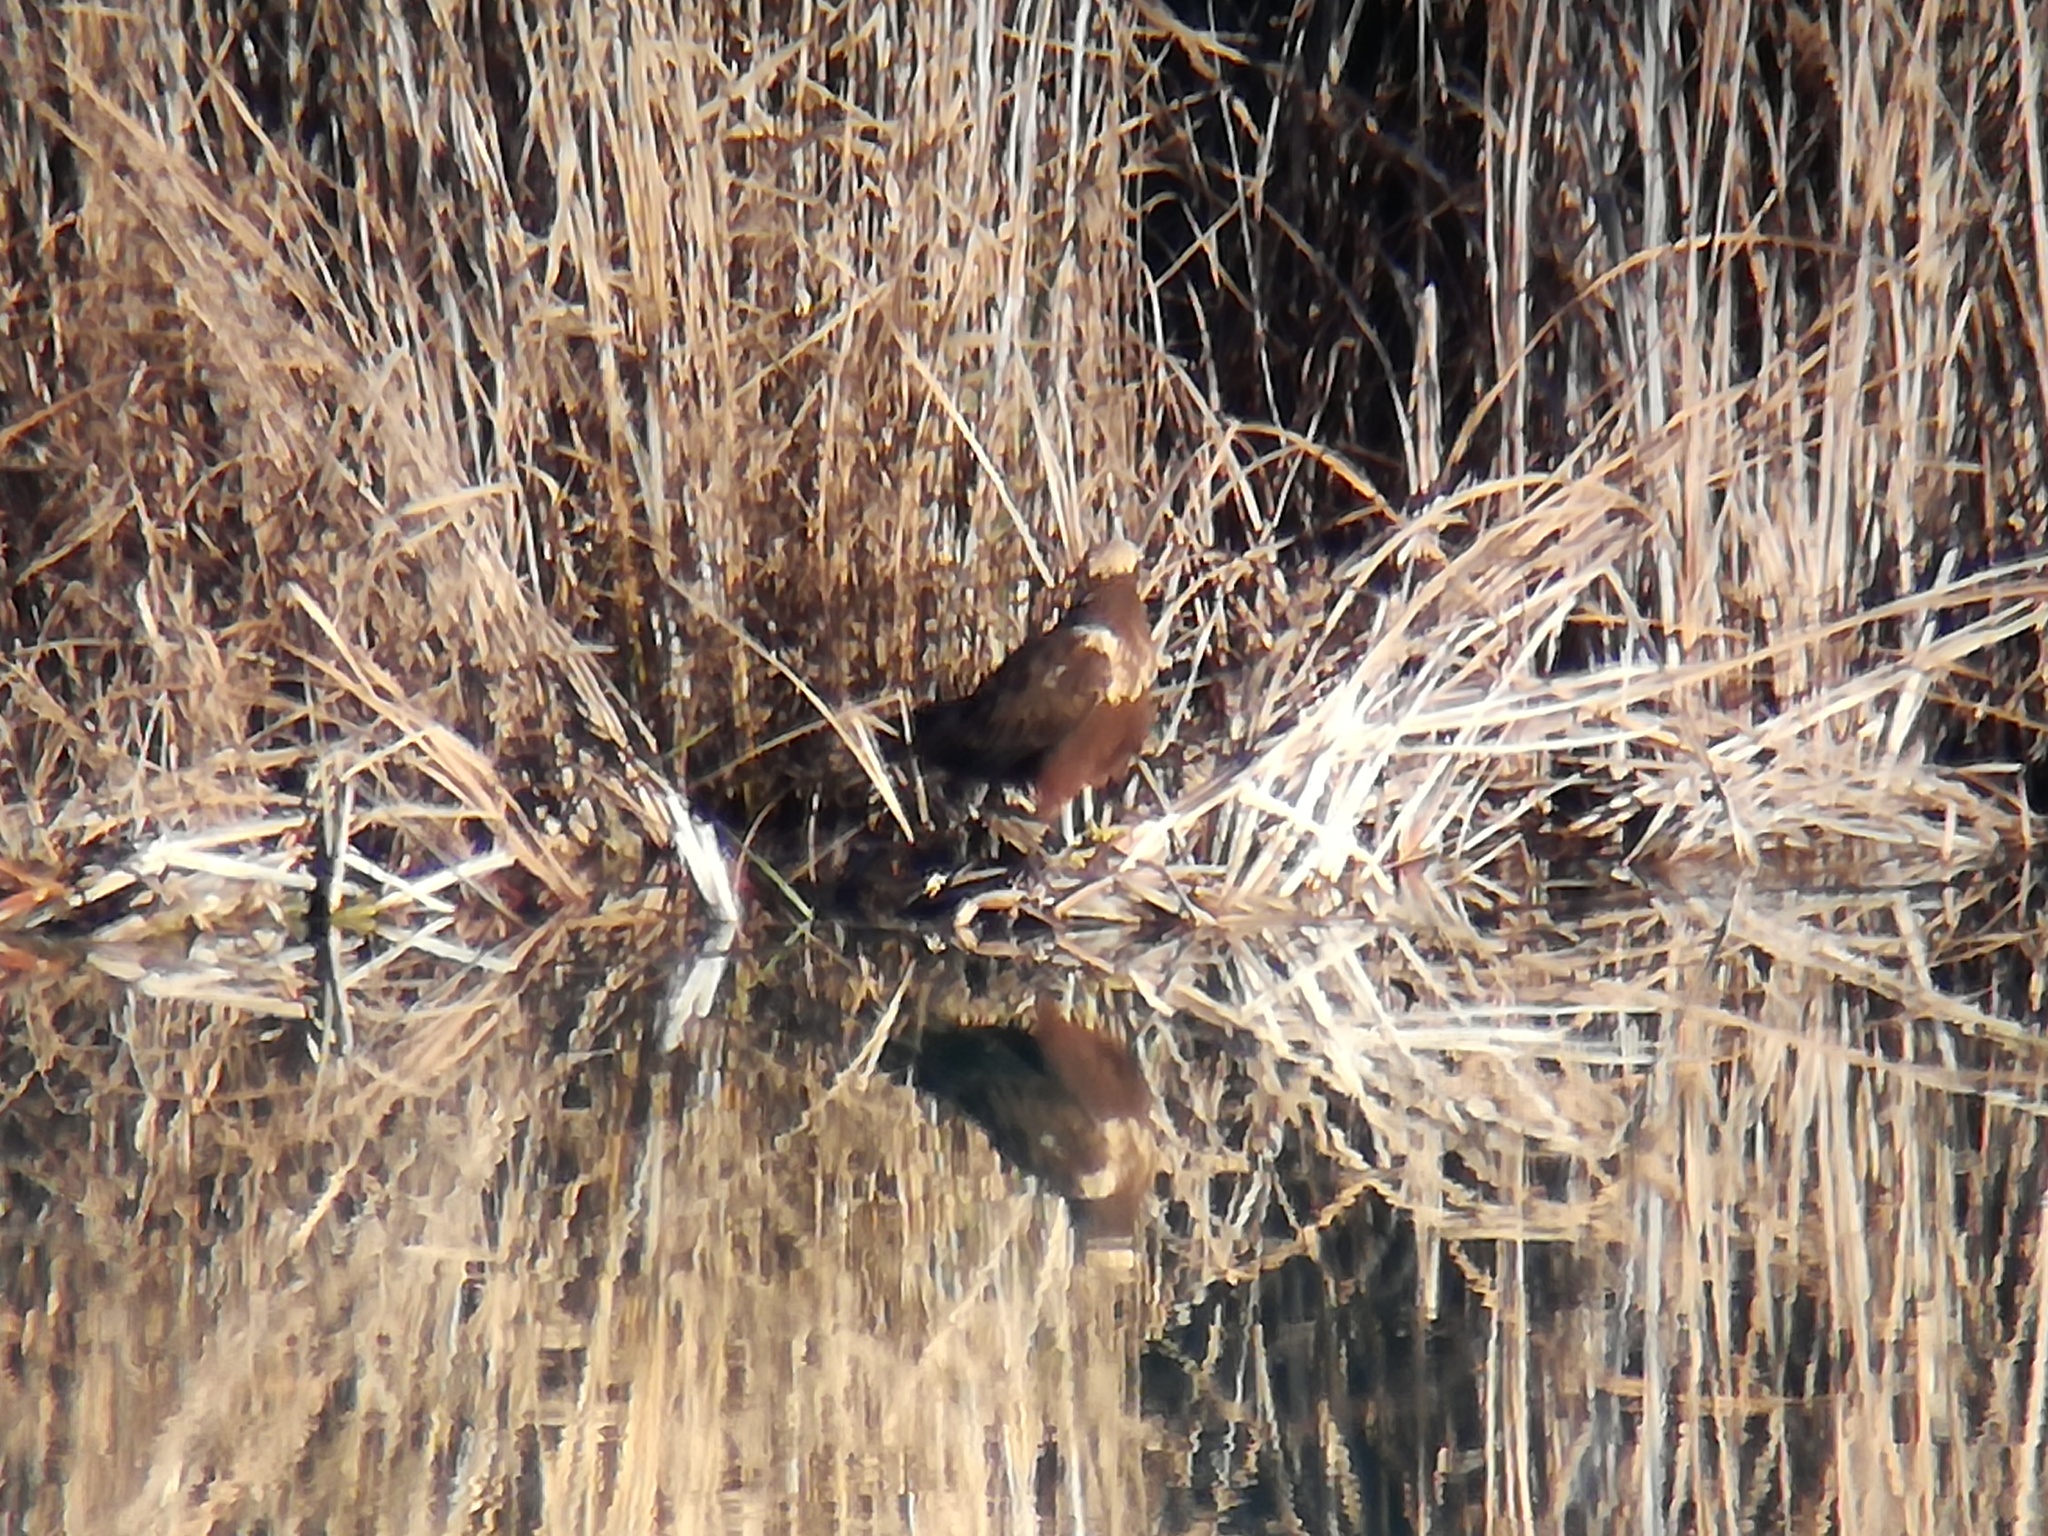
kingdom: Animalia
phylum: Chordata
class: Aves
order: Accipitriformes
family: Accipitridae
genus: Circus
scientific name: Circus aeruginosus
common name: Western marsh harrier
